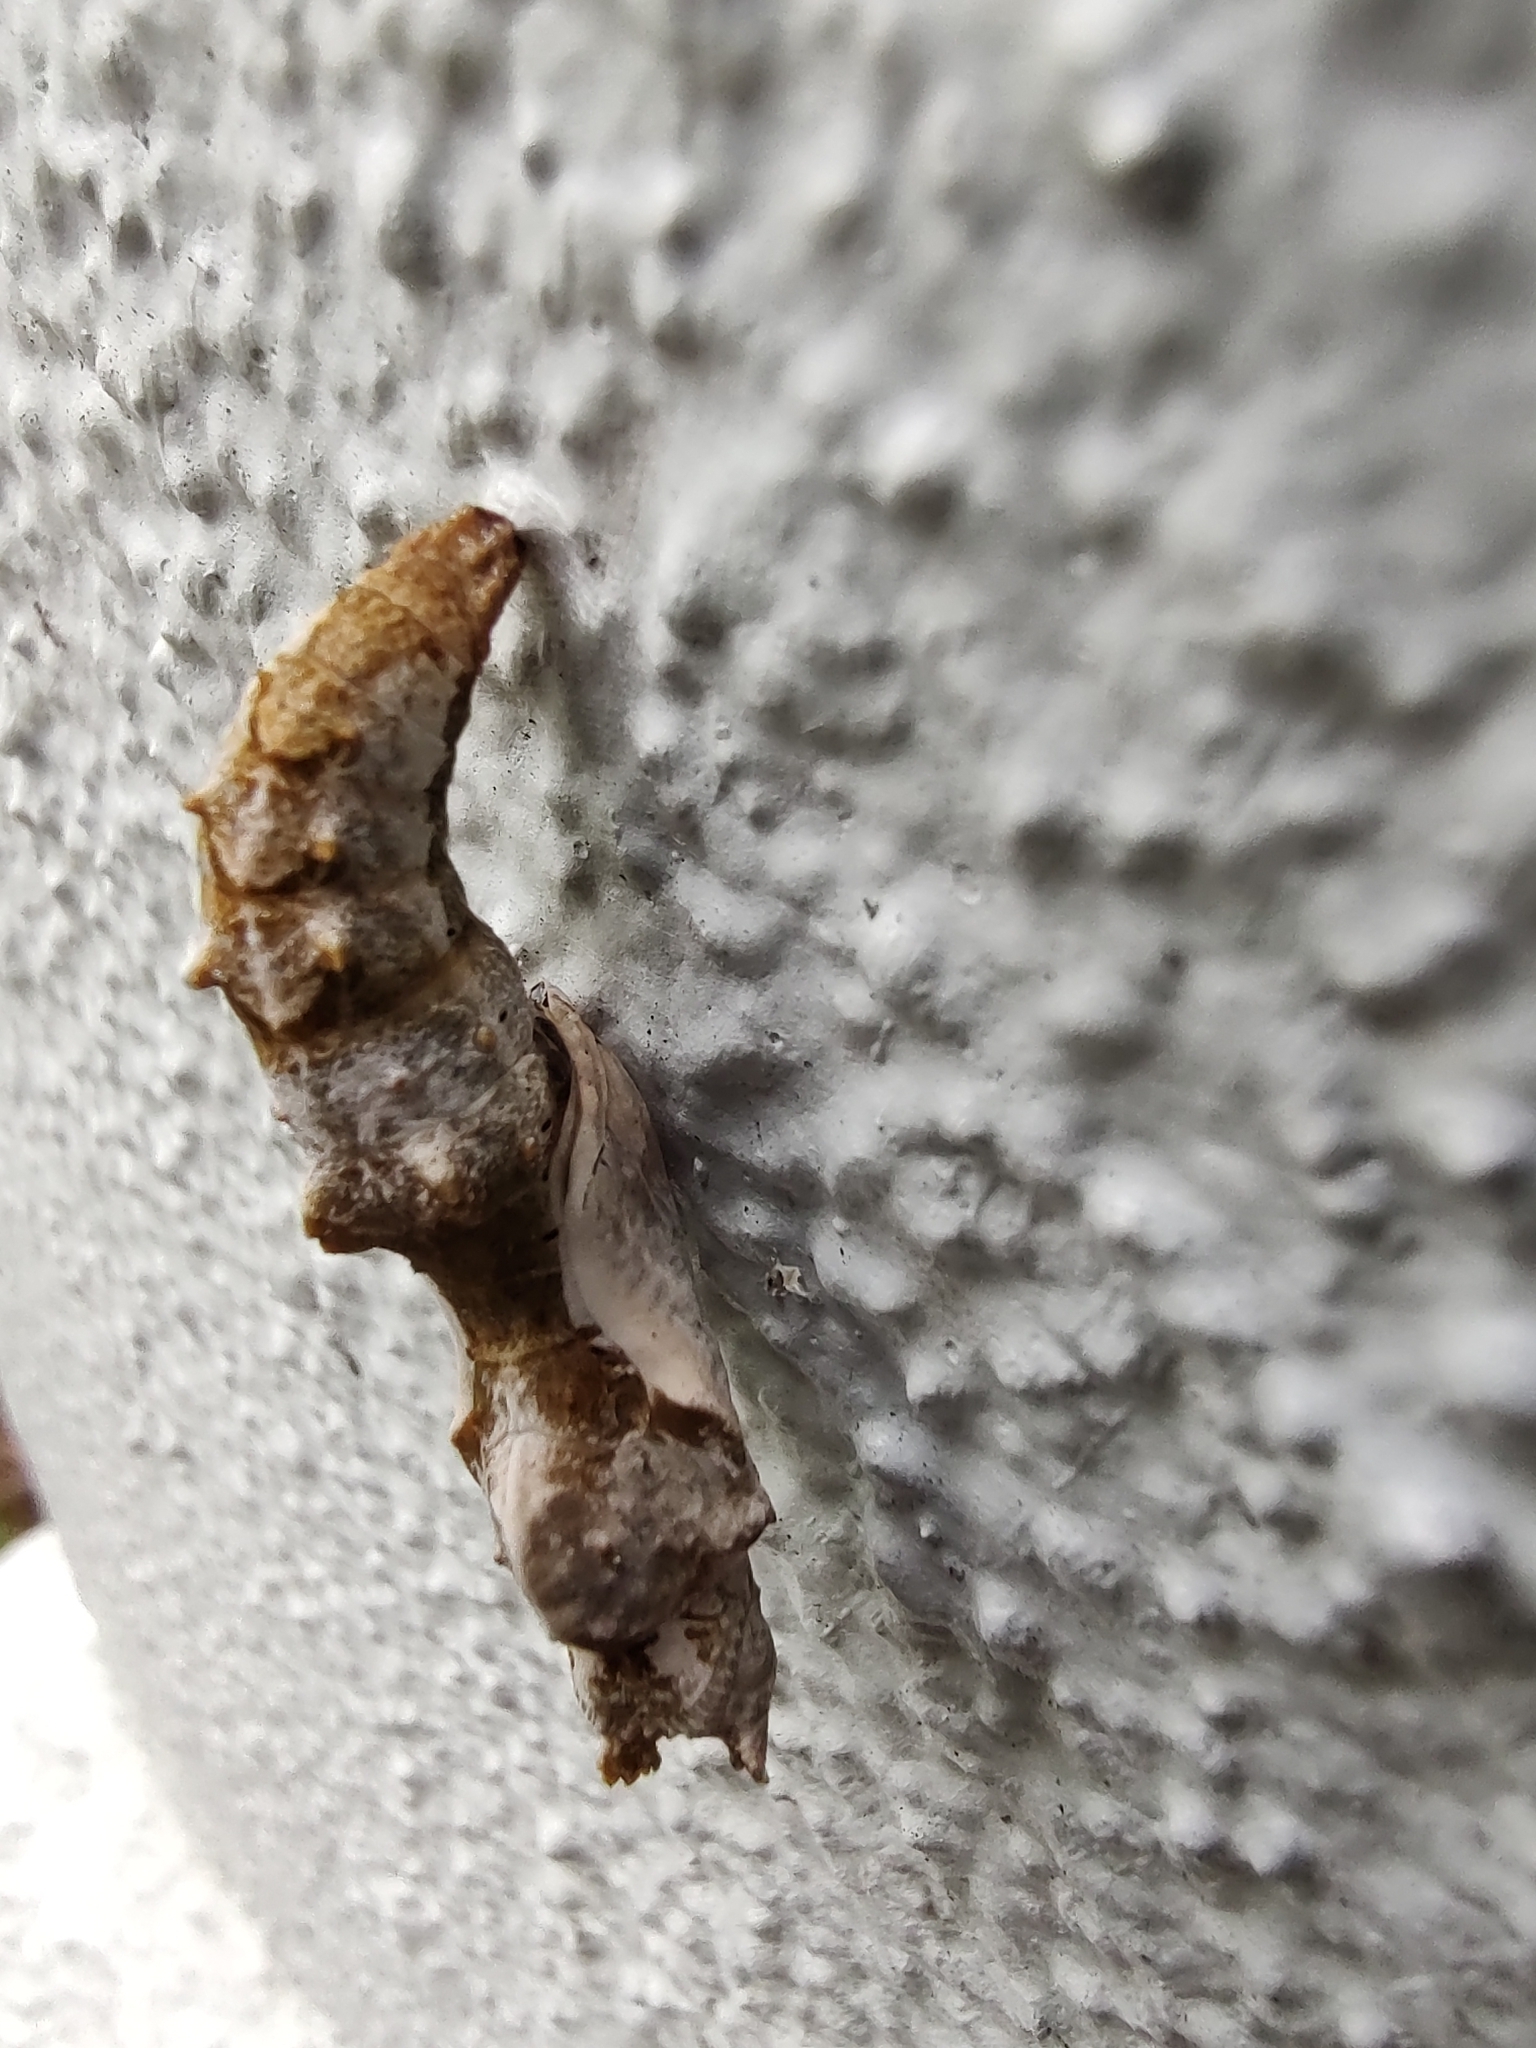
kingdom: Animalia
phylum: Arthropoda
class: Insecta
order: Lepidoptera
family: Nymphalidae
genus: Dione
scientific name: Dione vanillae
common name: Gulf fritillary
